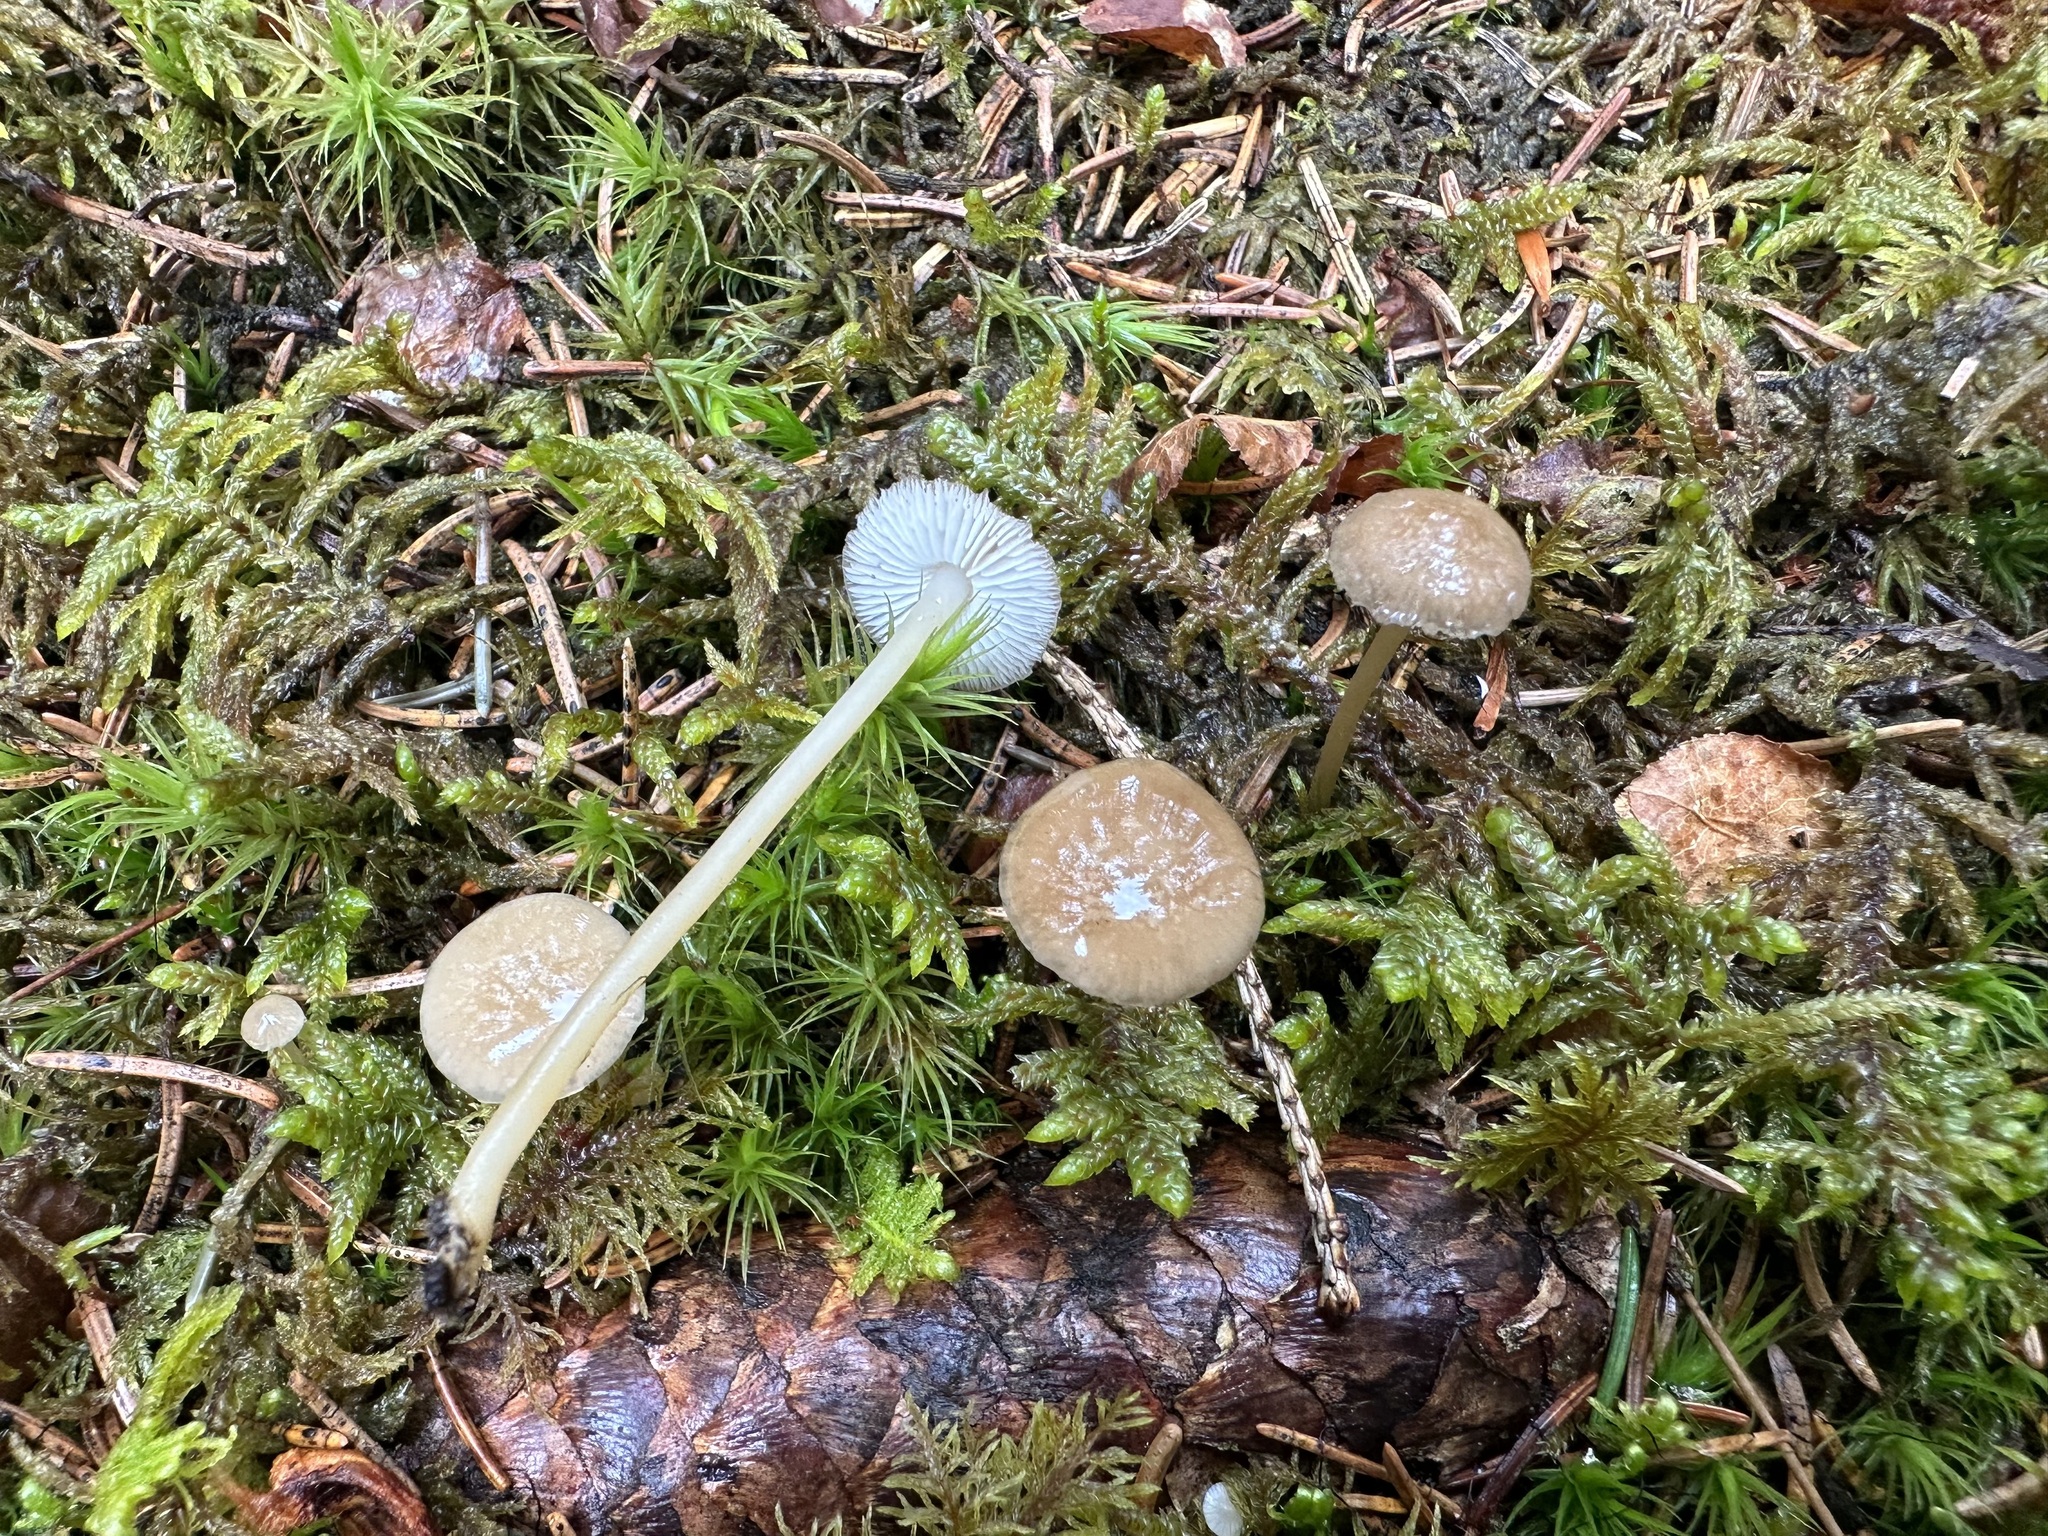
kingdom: Fungi
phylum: Basidiomycota
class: Agaricomycetes
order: Agaricales
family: Physalacriaceae
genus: Strobilurus
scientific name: Strobilurus esculentus
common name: Sprucecone cap
